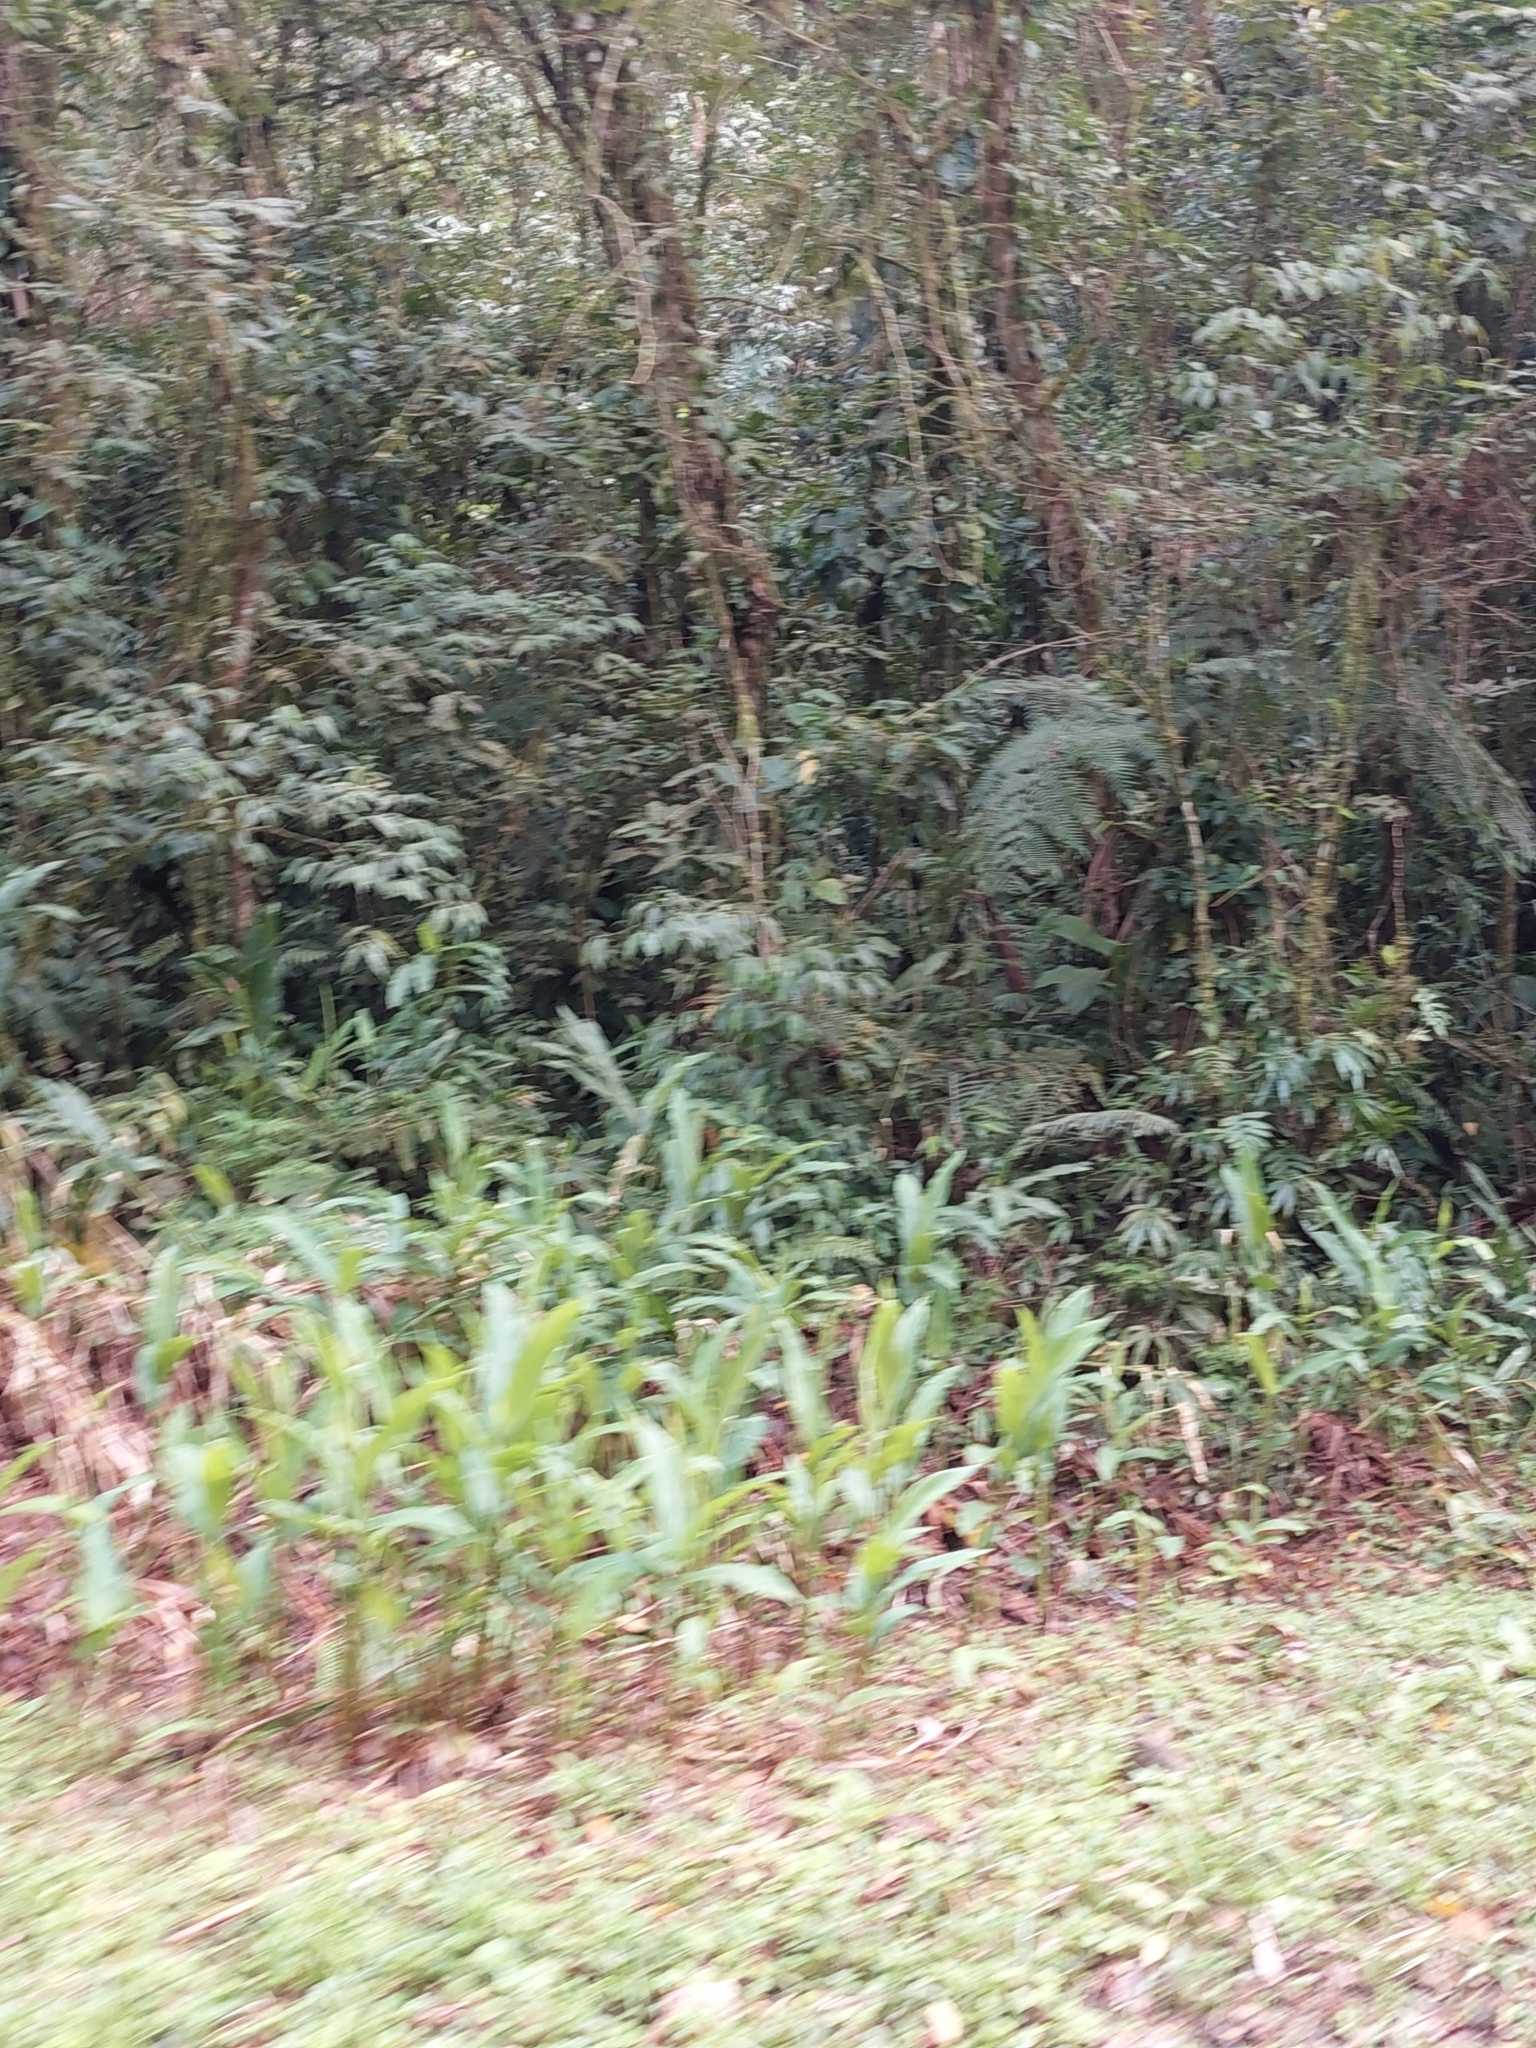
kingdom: Plantae
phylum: Tracheophyta
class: Liliopsida
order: Zingiberales
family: Zingiberaceae
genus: Hedychium
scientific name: Hedychium coronarium
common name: White garland-lily
